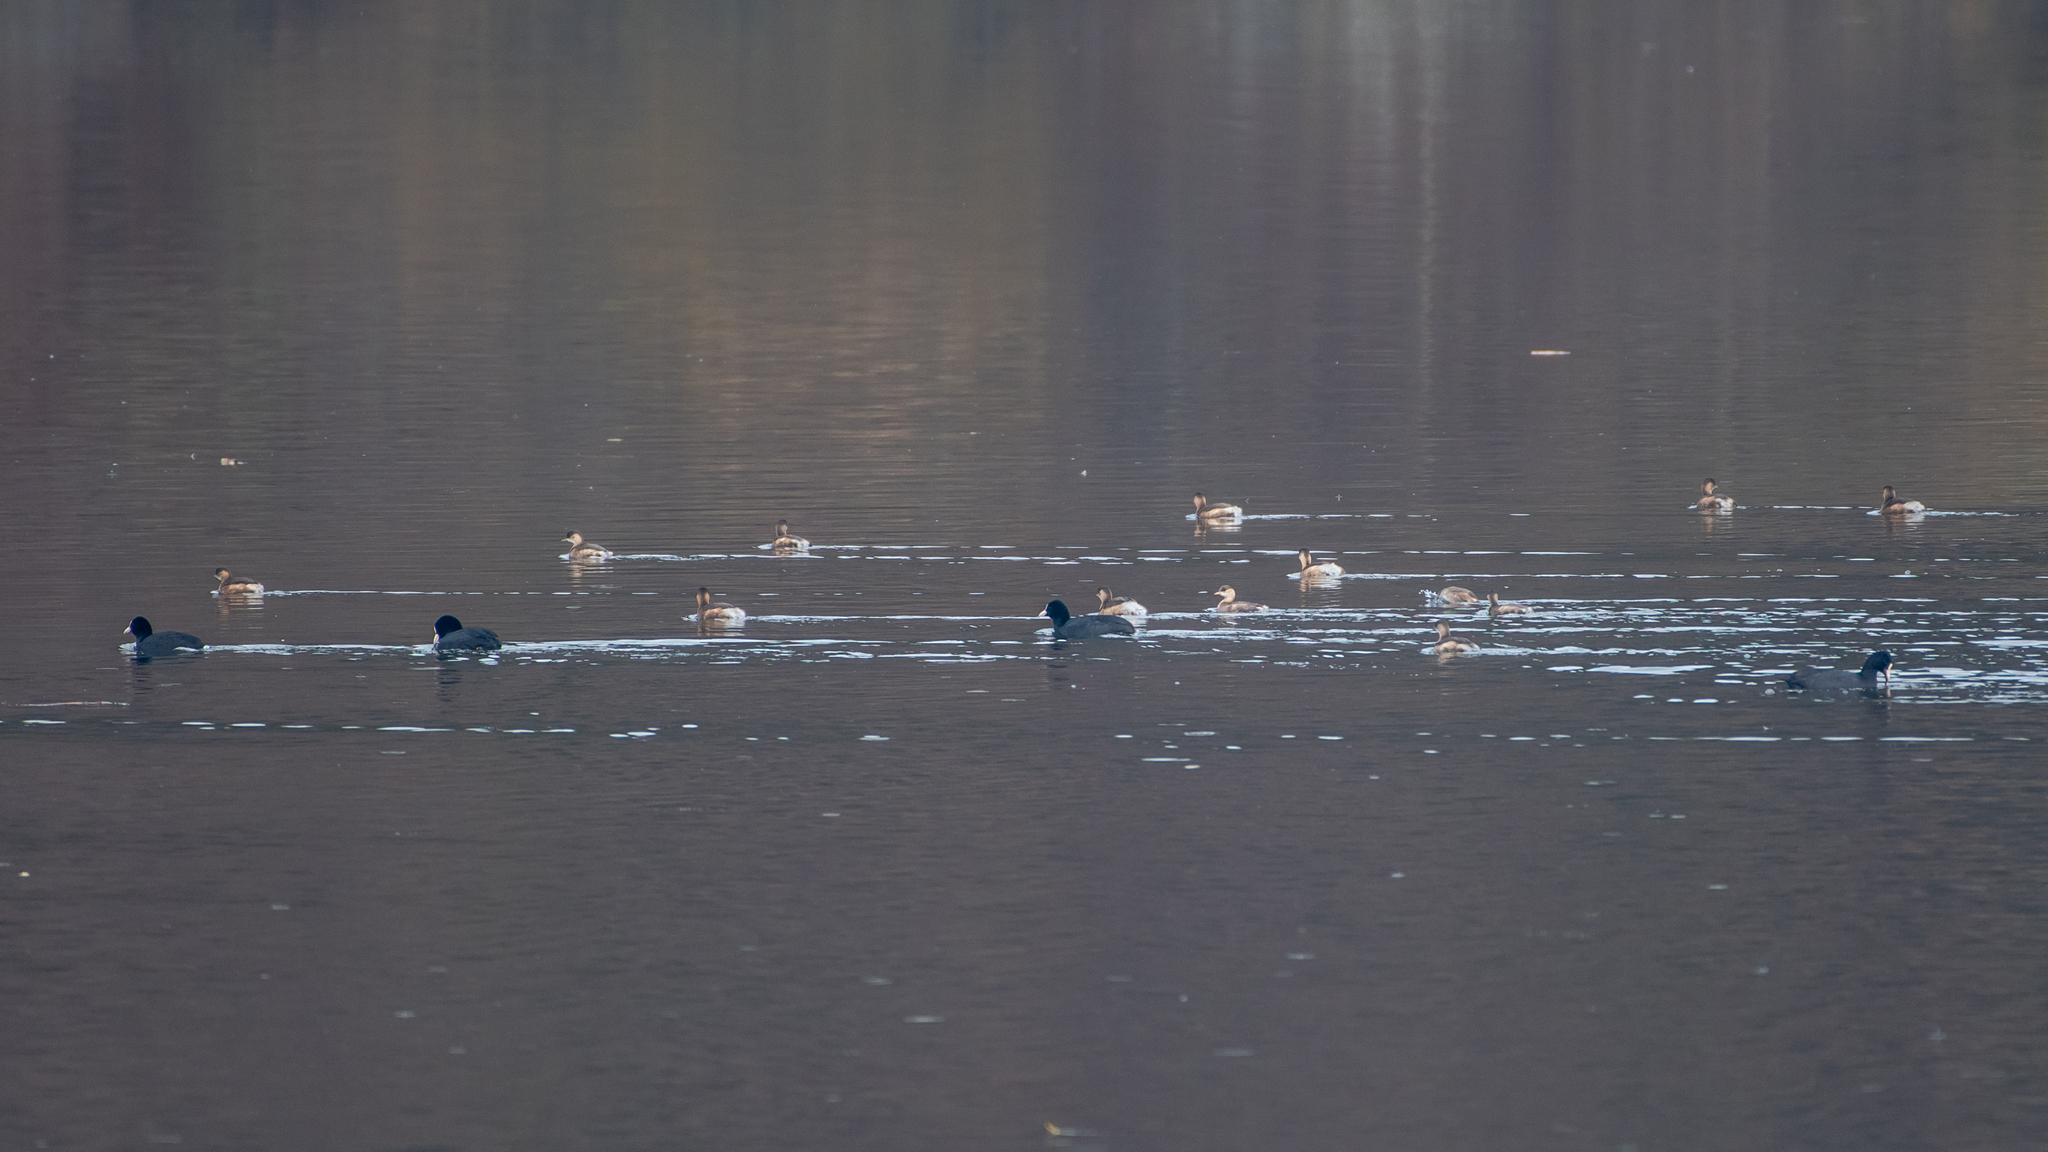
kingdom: Animalia
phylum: Chordata
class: Aves
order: Podicipediformes
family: Podicipedidae
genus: Tachybaptus
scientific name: Tachybaptus ruficollis
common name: Little grebe
